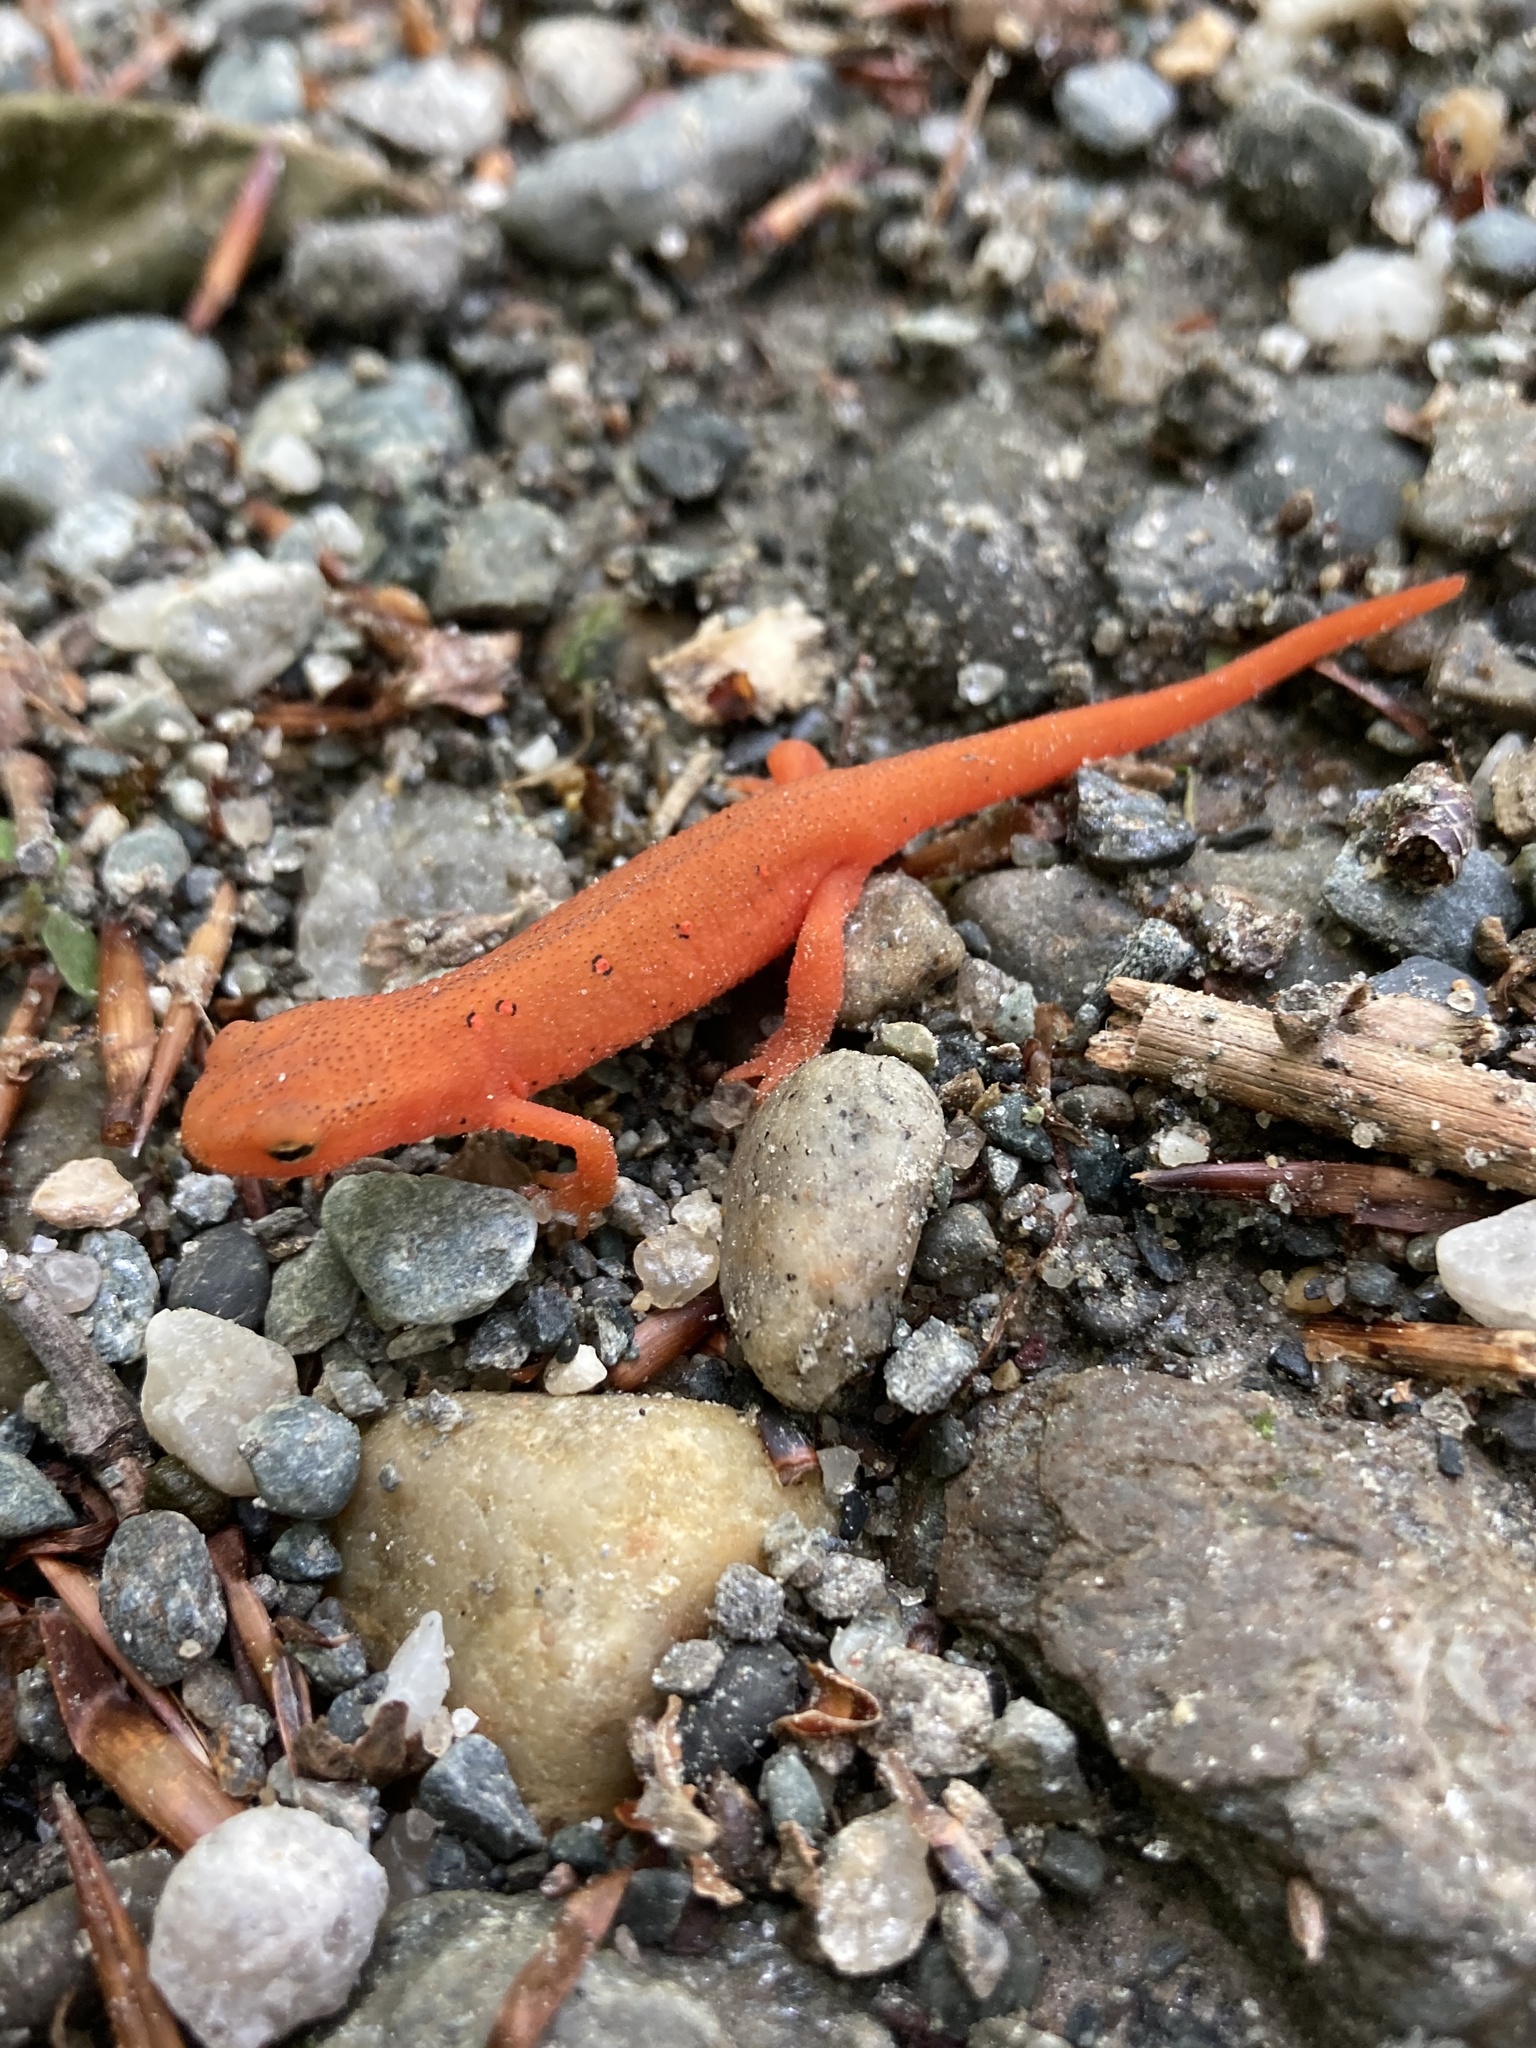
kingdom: Animalia
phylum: Chordata
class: Amphibia
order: Caudata
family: Salamandridae
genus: Notophthalmus
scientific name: Notophthalmus viridescens
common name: Eastern newt
